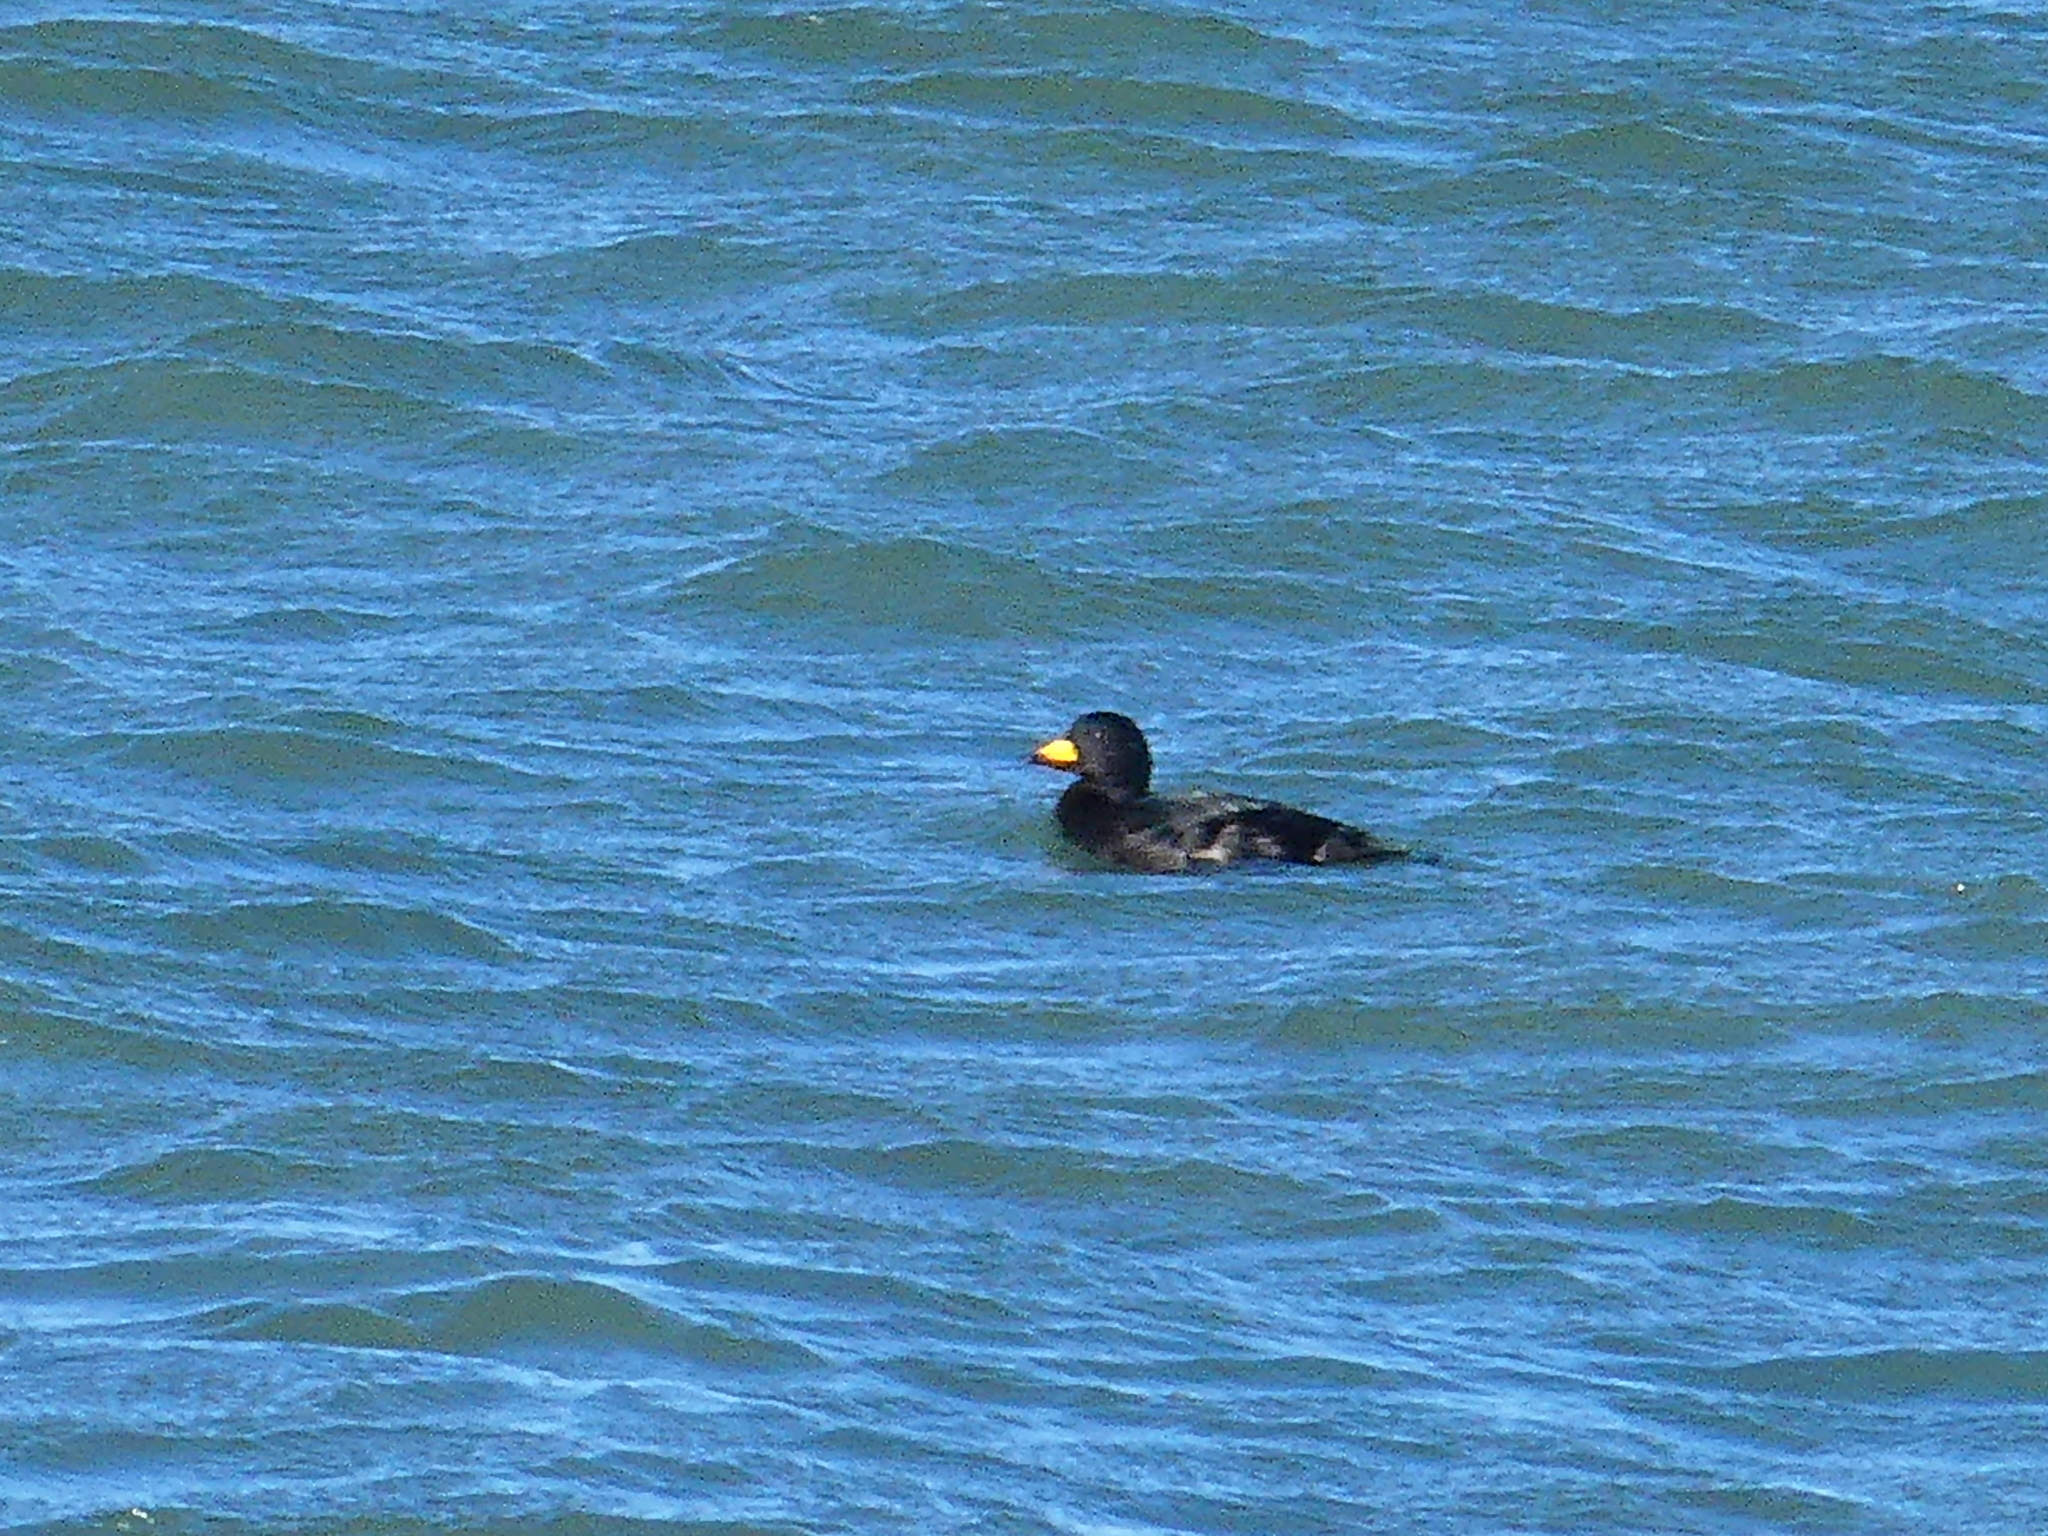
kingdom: Animalia
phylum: Chordata
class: Aves
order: Anseriformes
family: Anatidae
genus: Melanitta
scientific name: Melanitta americana
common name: Black scoter
